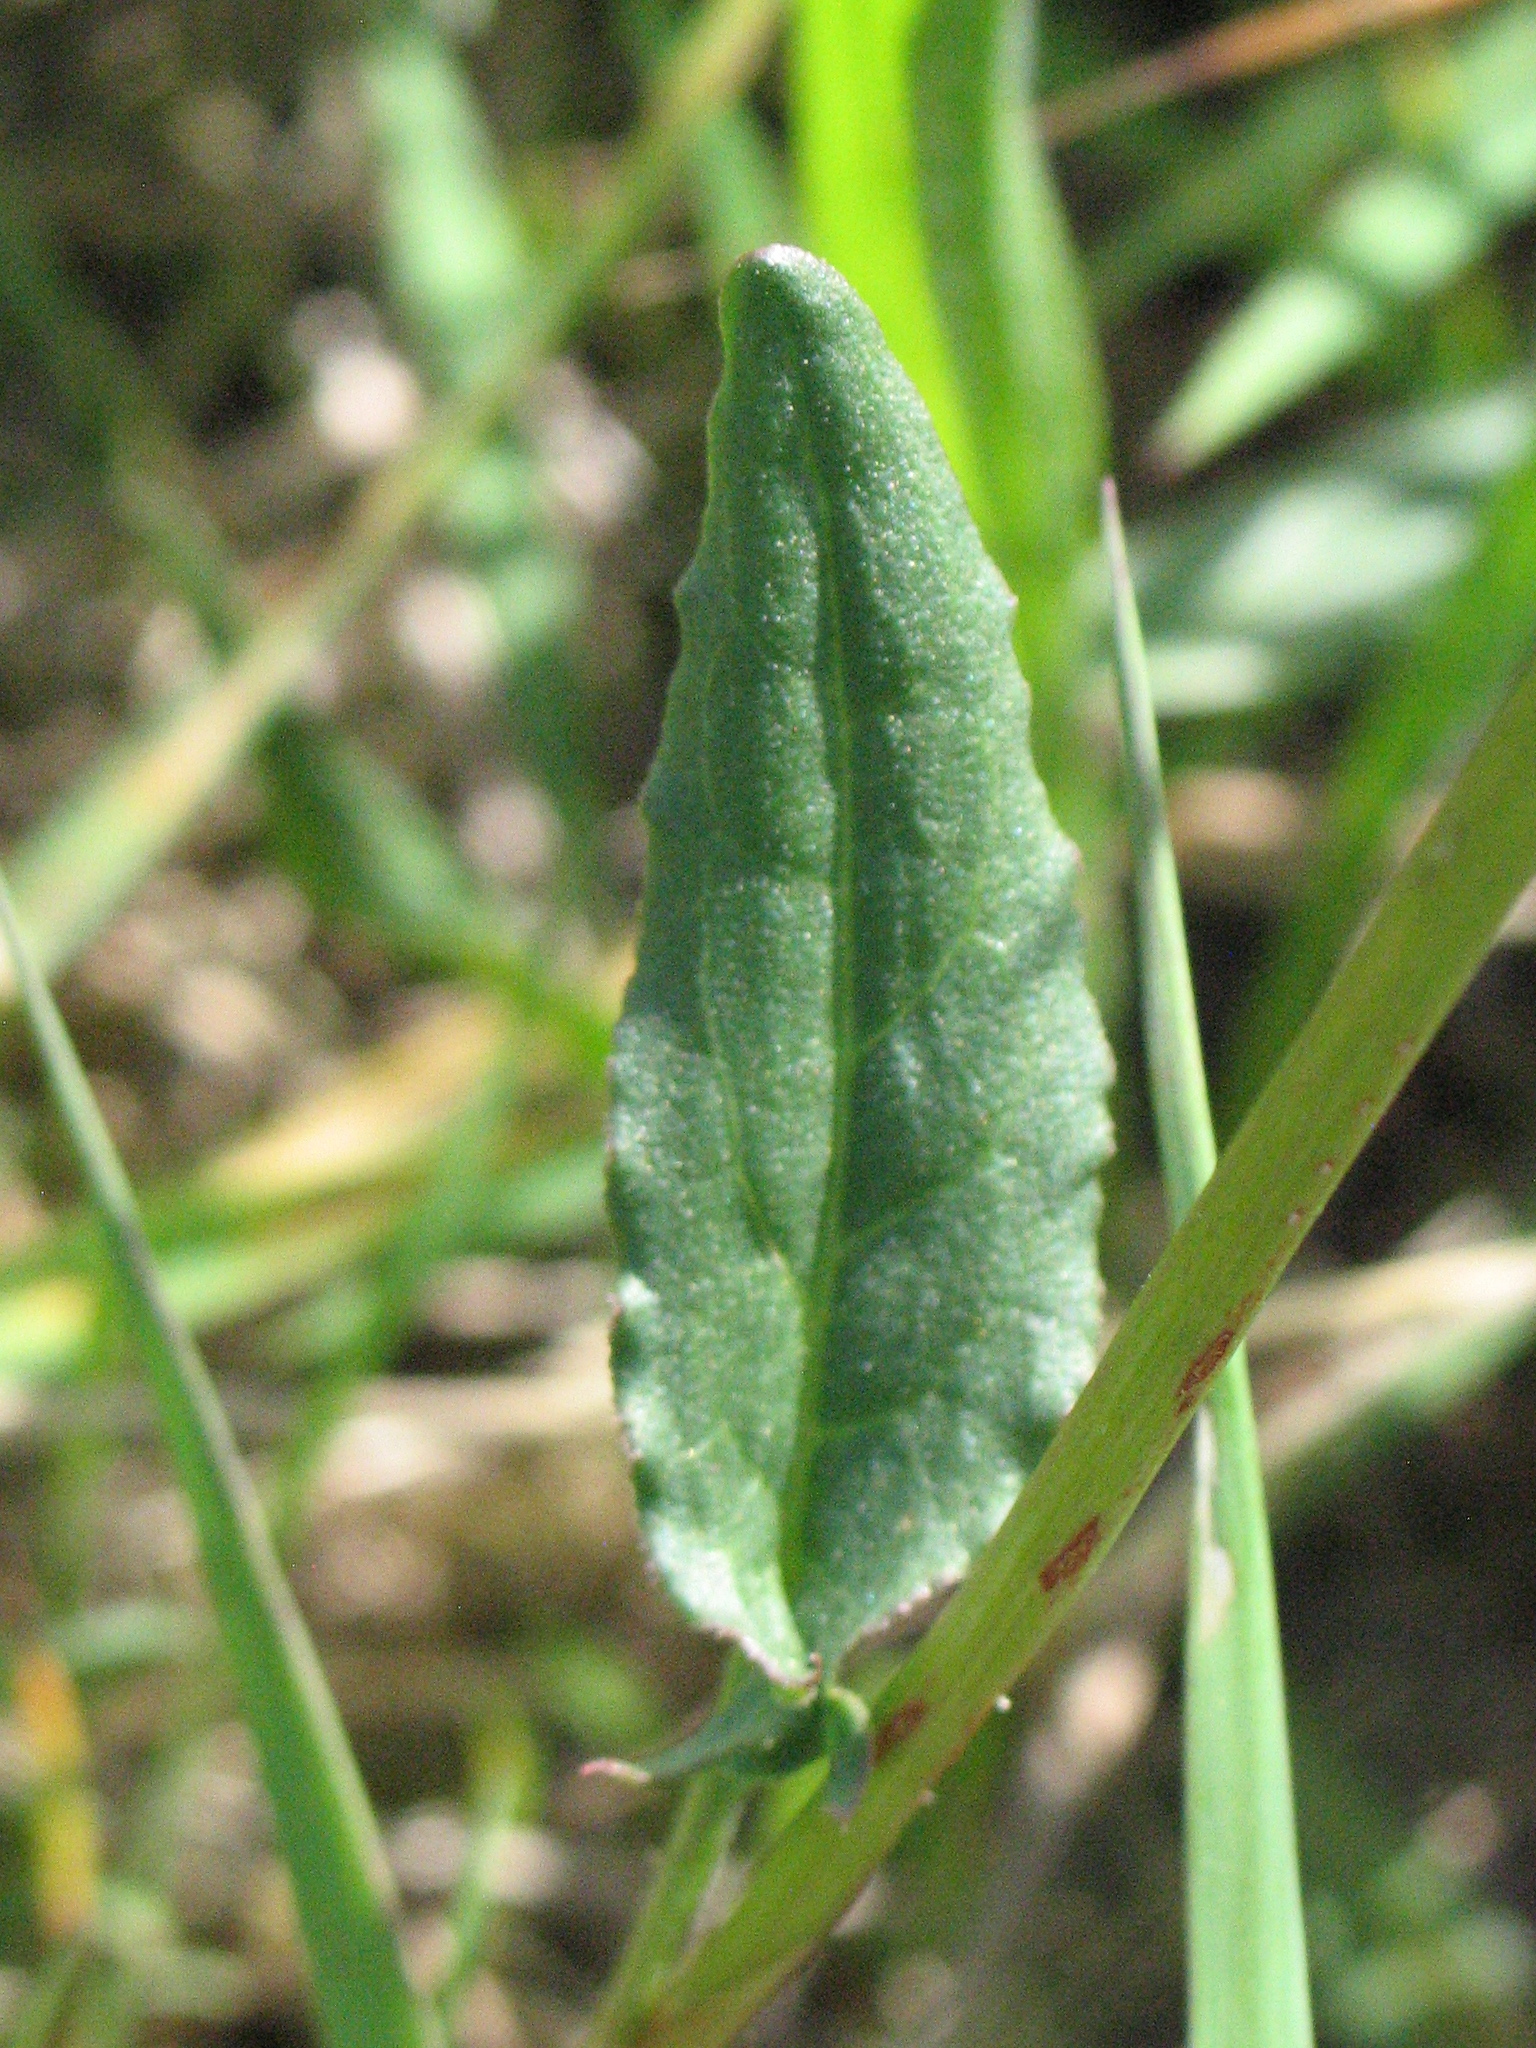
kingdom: Plantae
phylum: Tracheophyta
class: Magnoliopsida
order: Caryophyllales
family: Polygonaceae
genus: Rumex
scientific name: Rumex acetosa
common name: Garden sorrel
